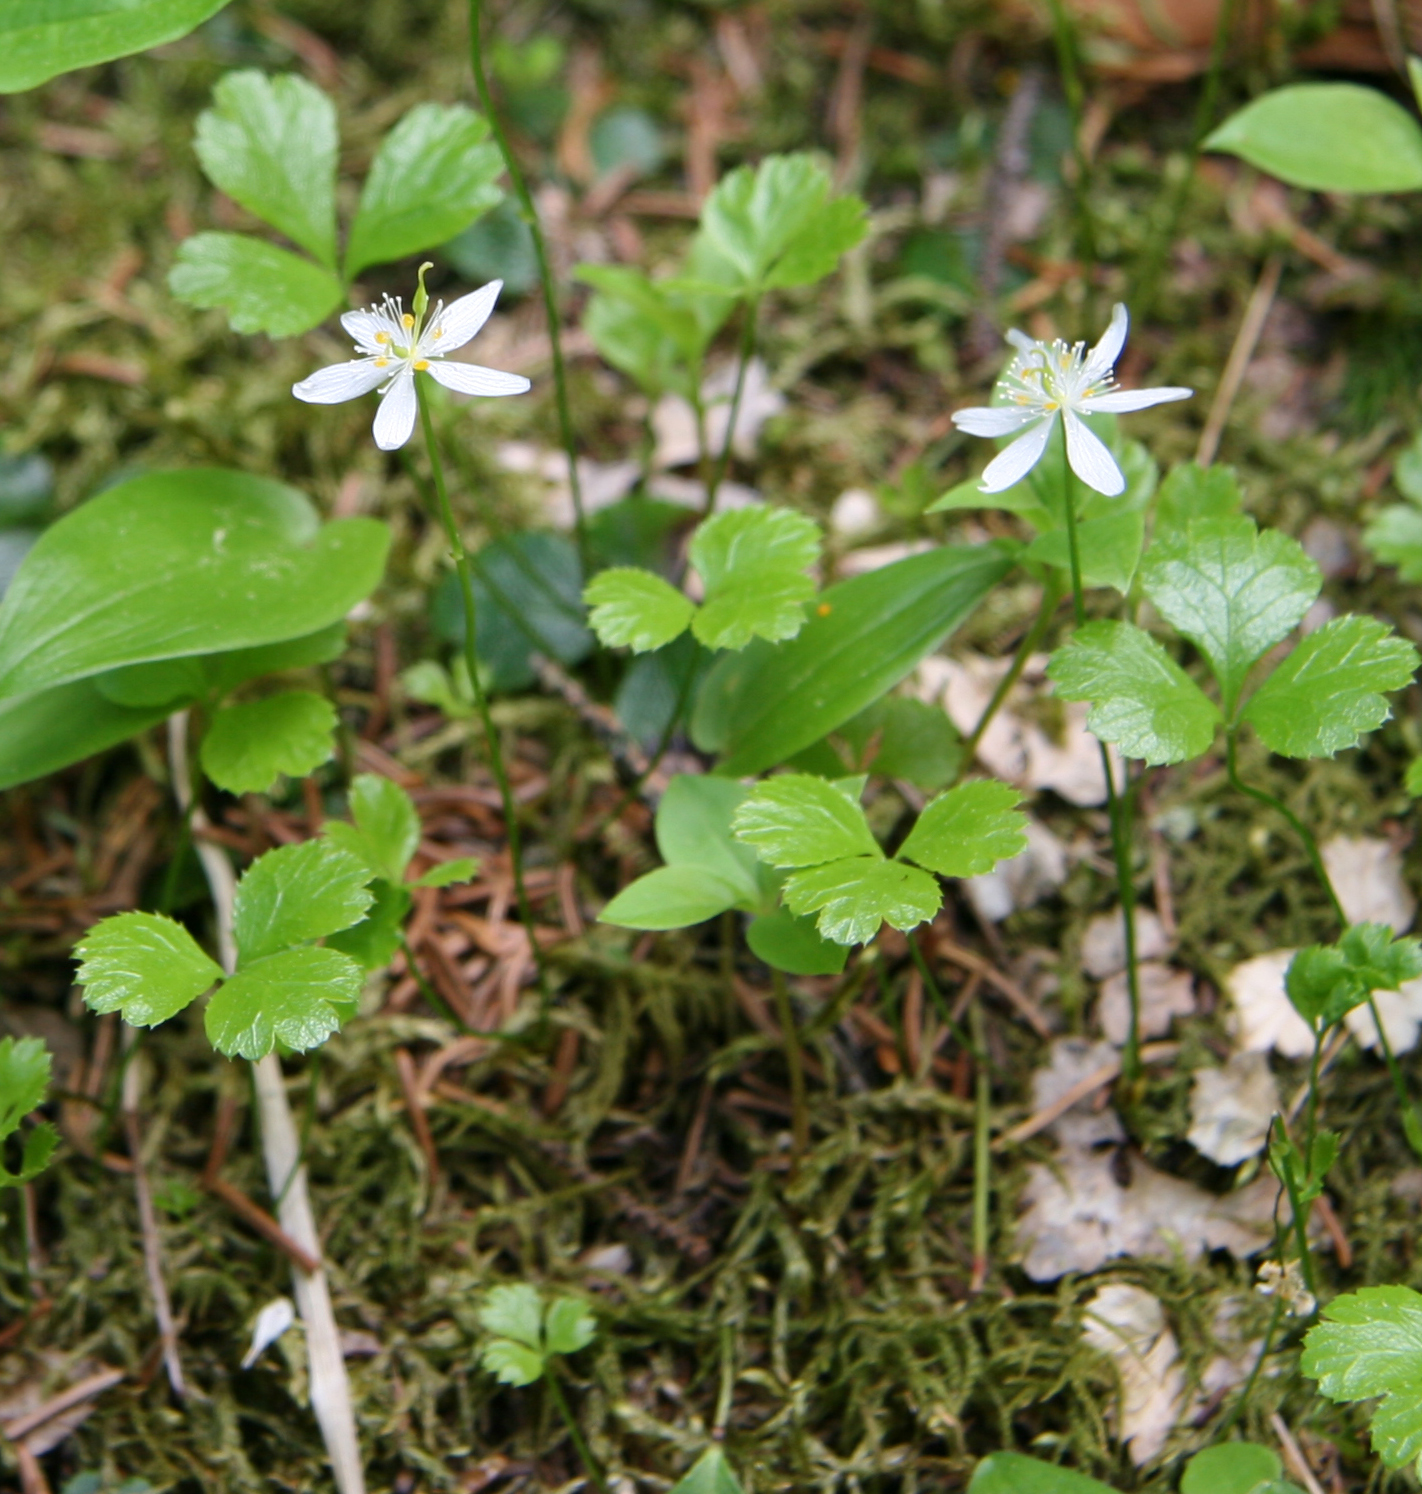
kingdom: Plantae
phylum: Tracheophyta
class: Magnoliopsida
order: Ranunculales
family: Ranunculaceae
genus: Coptis
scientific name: Coptis trifolia
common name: Canker-root
